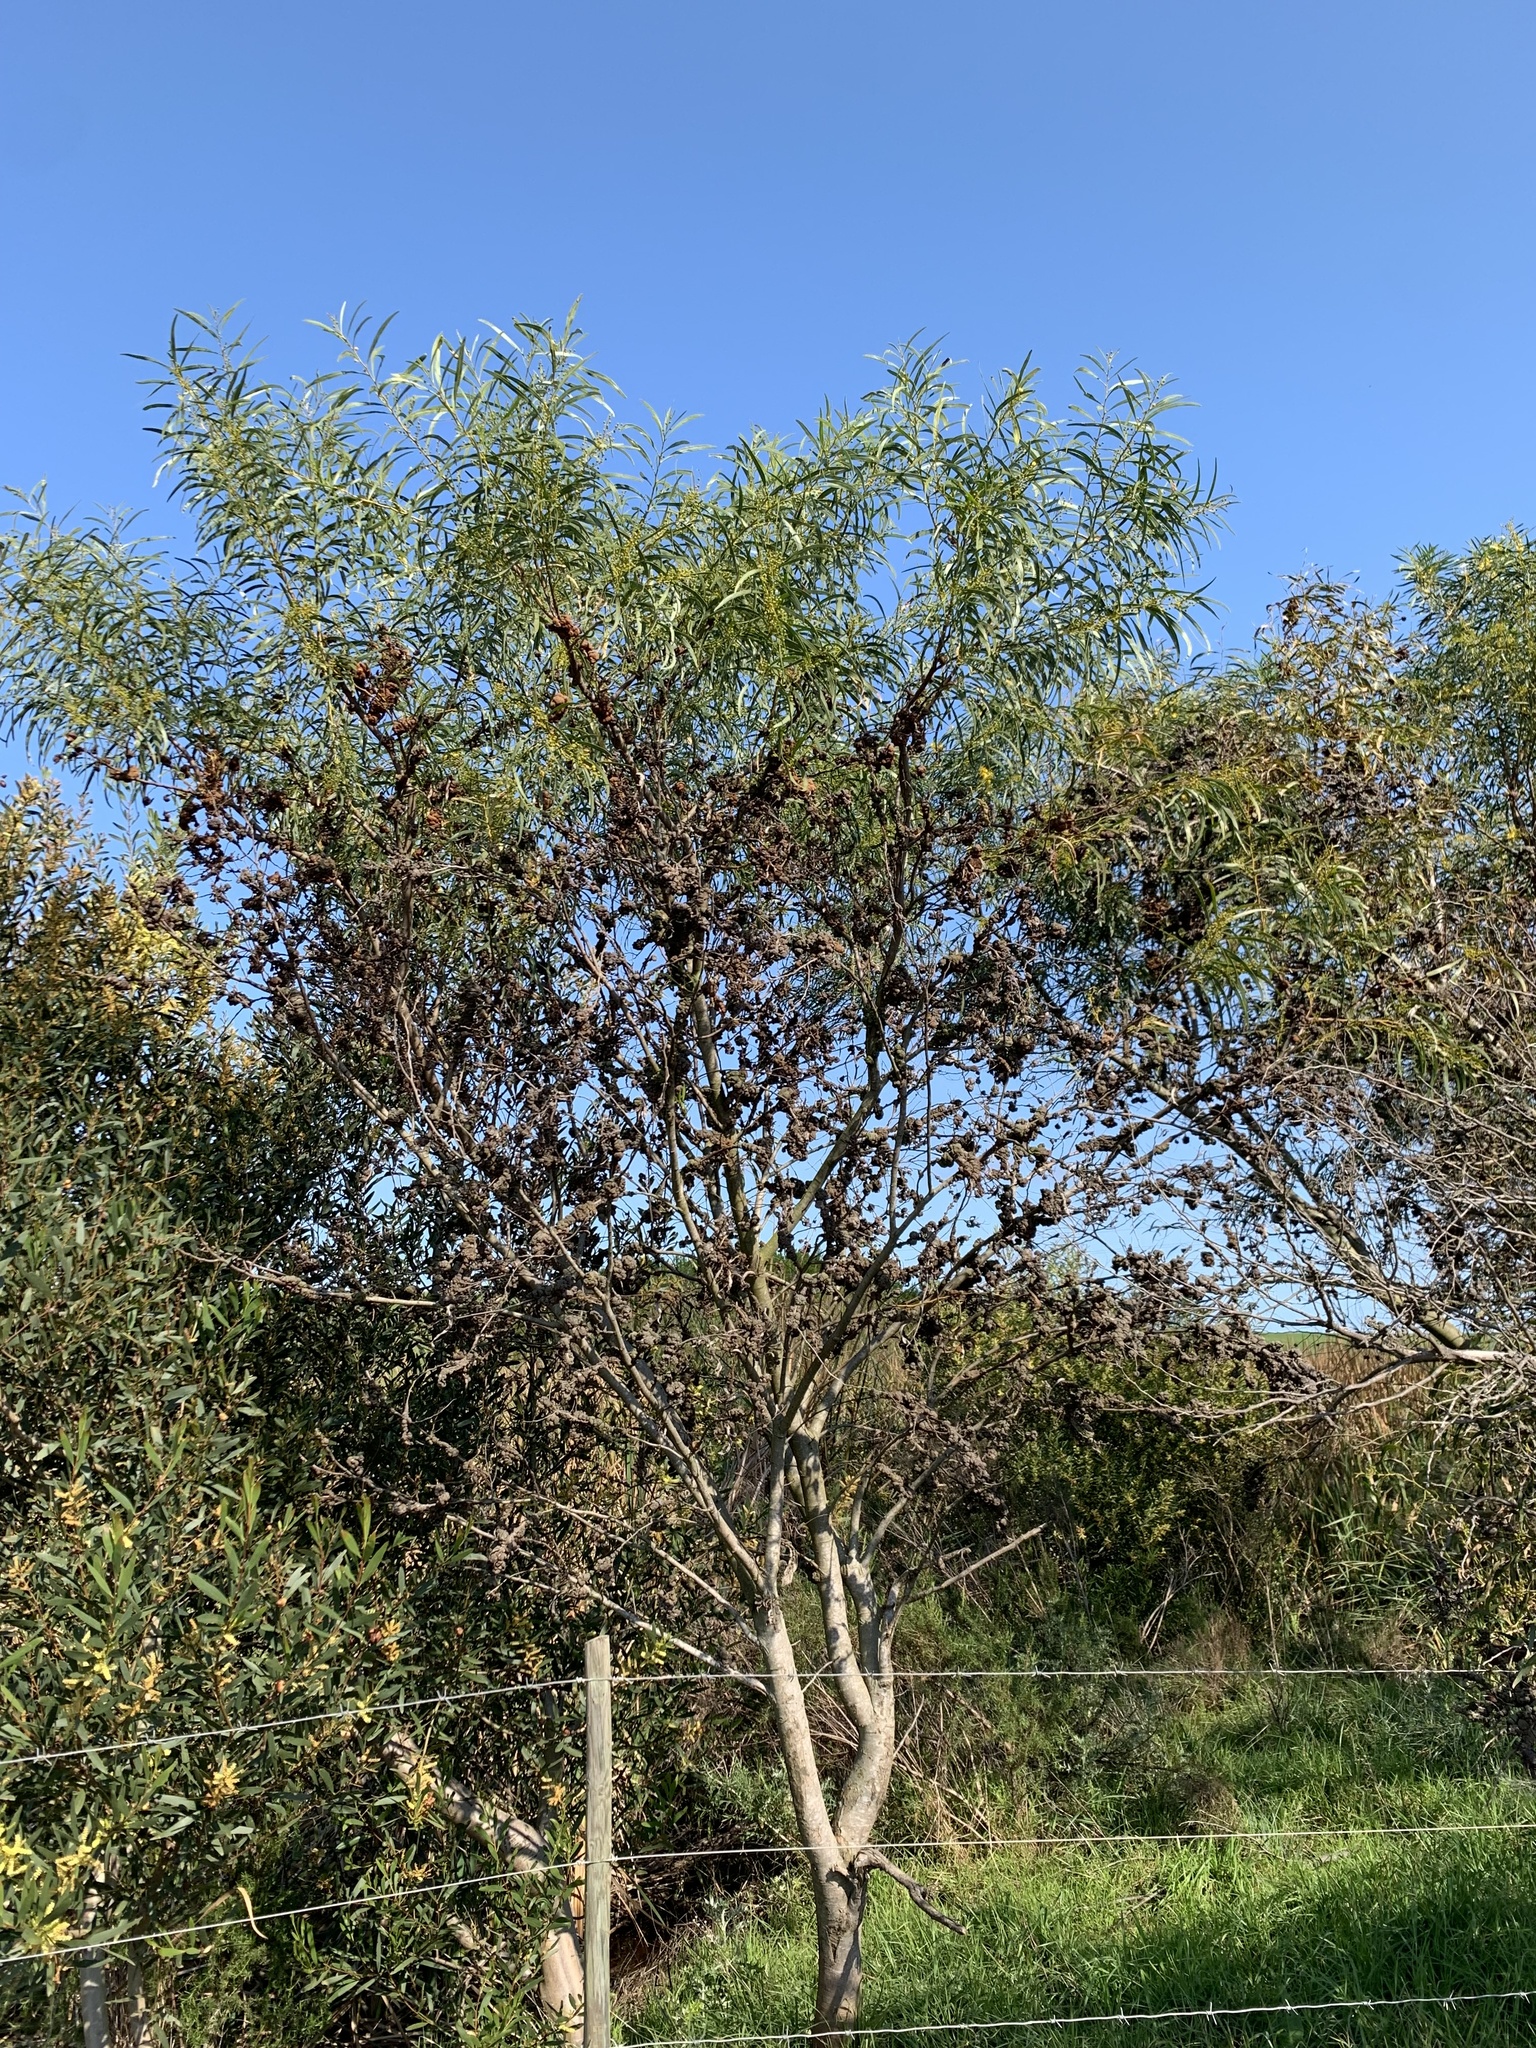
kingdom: Plantae
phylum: Tracheophyta
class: Magnoliopsida
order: Fabales
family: Fabaceae
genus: Acacia
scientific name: Acacia saligna
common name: Orange wattle
